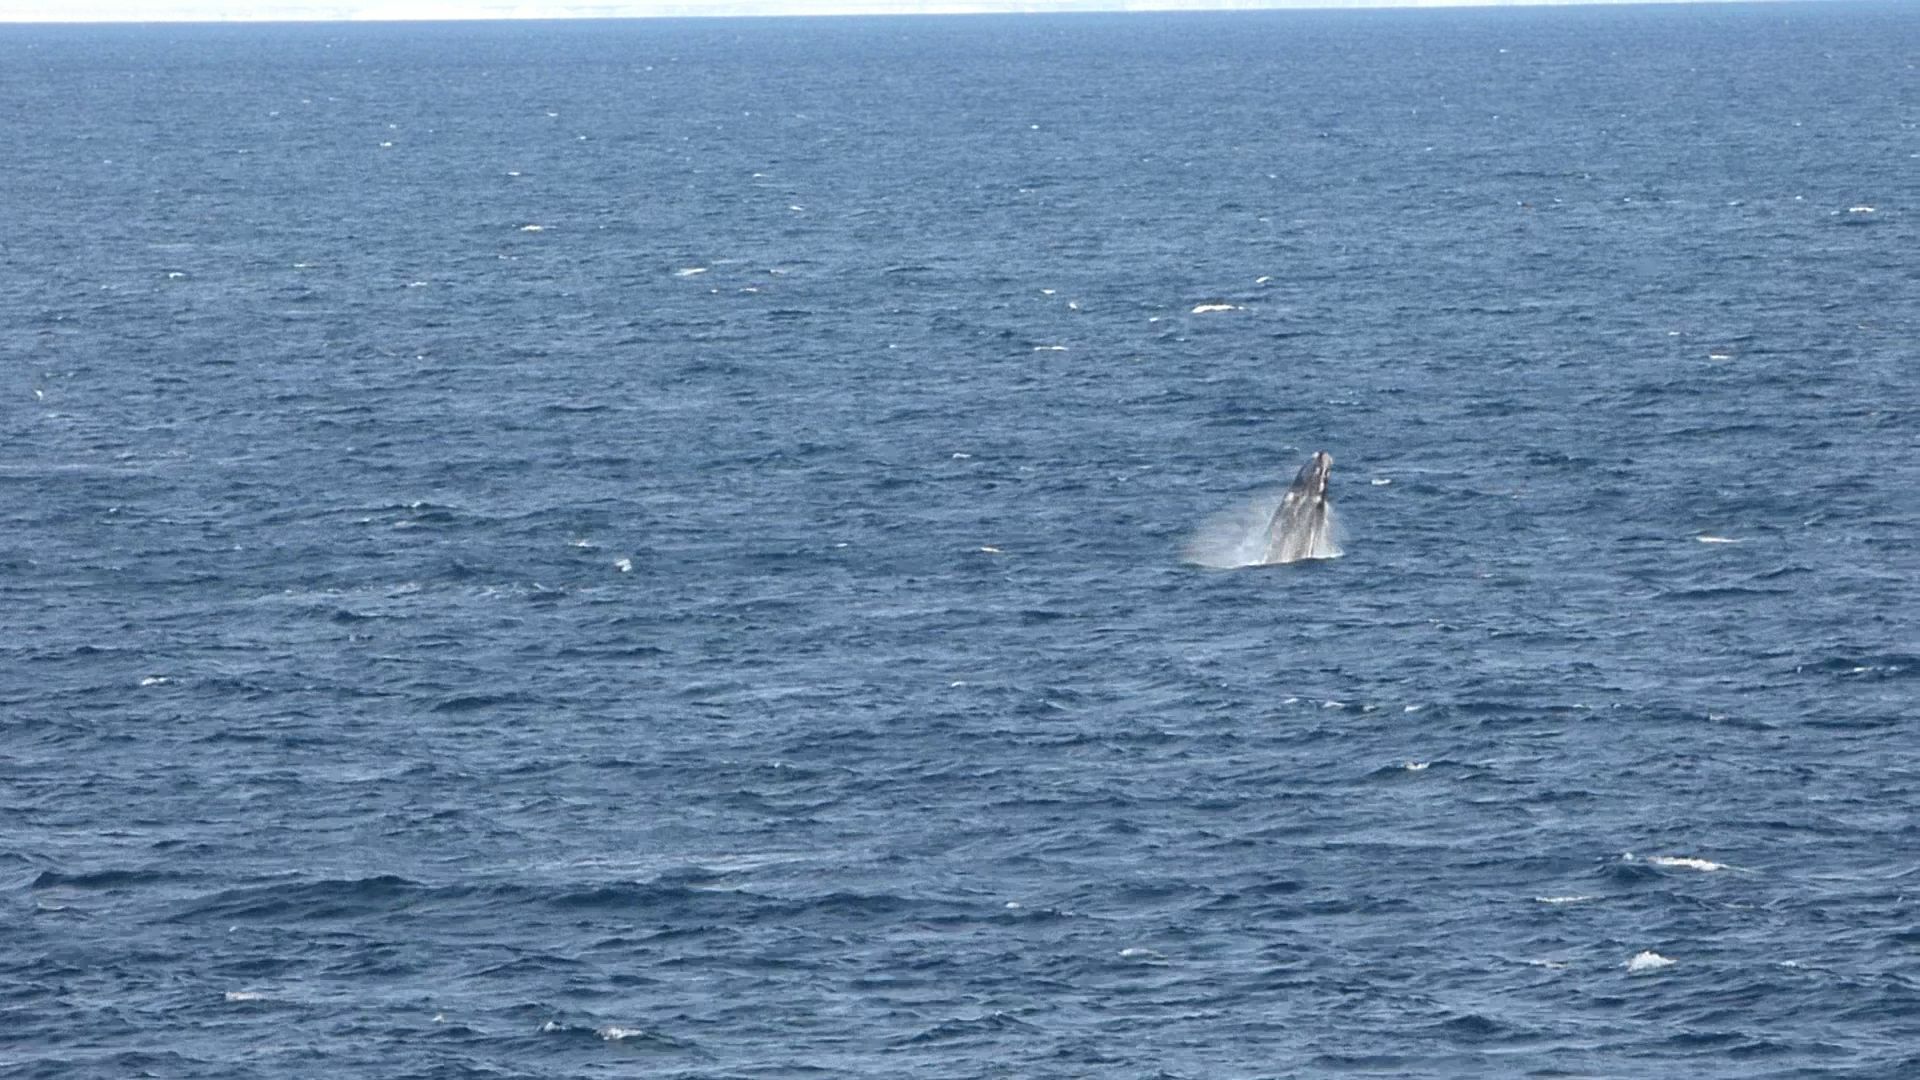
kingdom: Animalia
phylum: Chordata
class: Mammalia
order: Cetacea
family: Balaenidae
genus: Eubalaena
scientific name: Eubalaena australis
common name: Southern right whale
